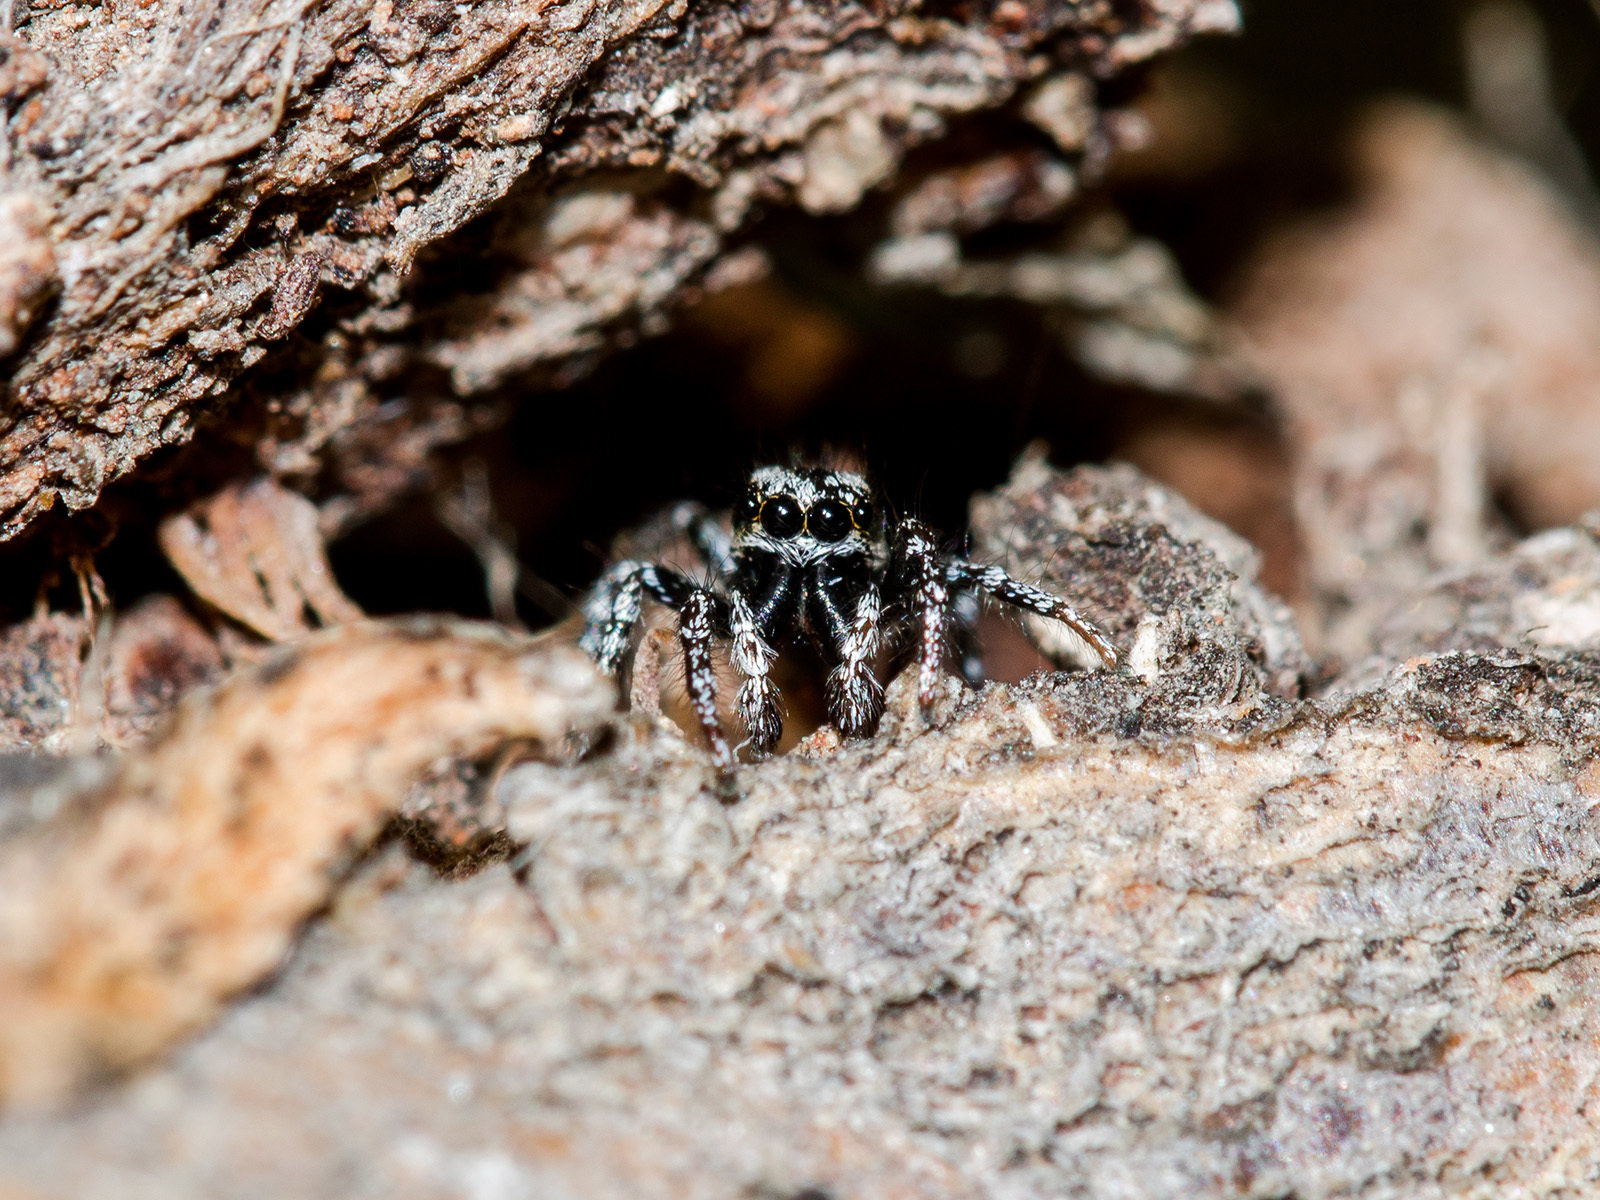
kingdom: Animalia
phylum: Arthropoda
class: Arachnida
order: Araneae
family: Salticidae
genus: Salticus
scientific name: Salticus tricinctus
